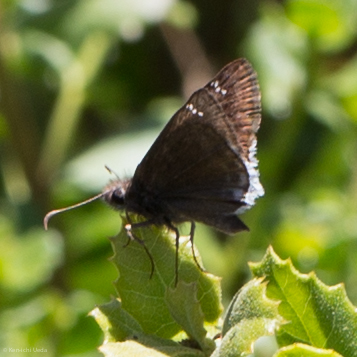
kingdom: Animalia
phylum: Arthropoda
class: Insecta
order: Lepidoptera
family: Hesperiidae
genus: Erynnis
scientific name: Erynnis tristis
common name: Mournful duskywing
